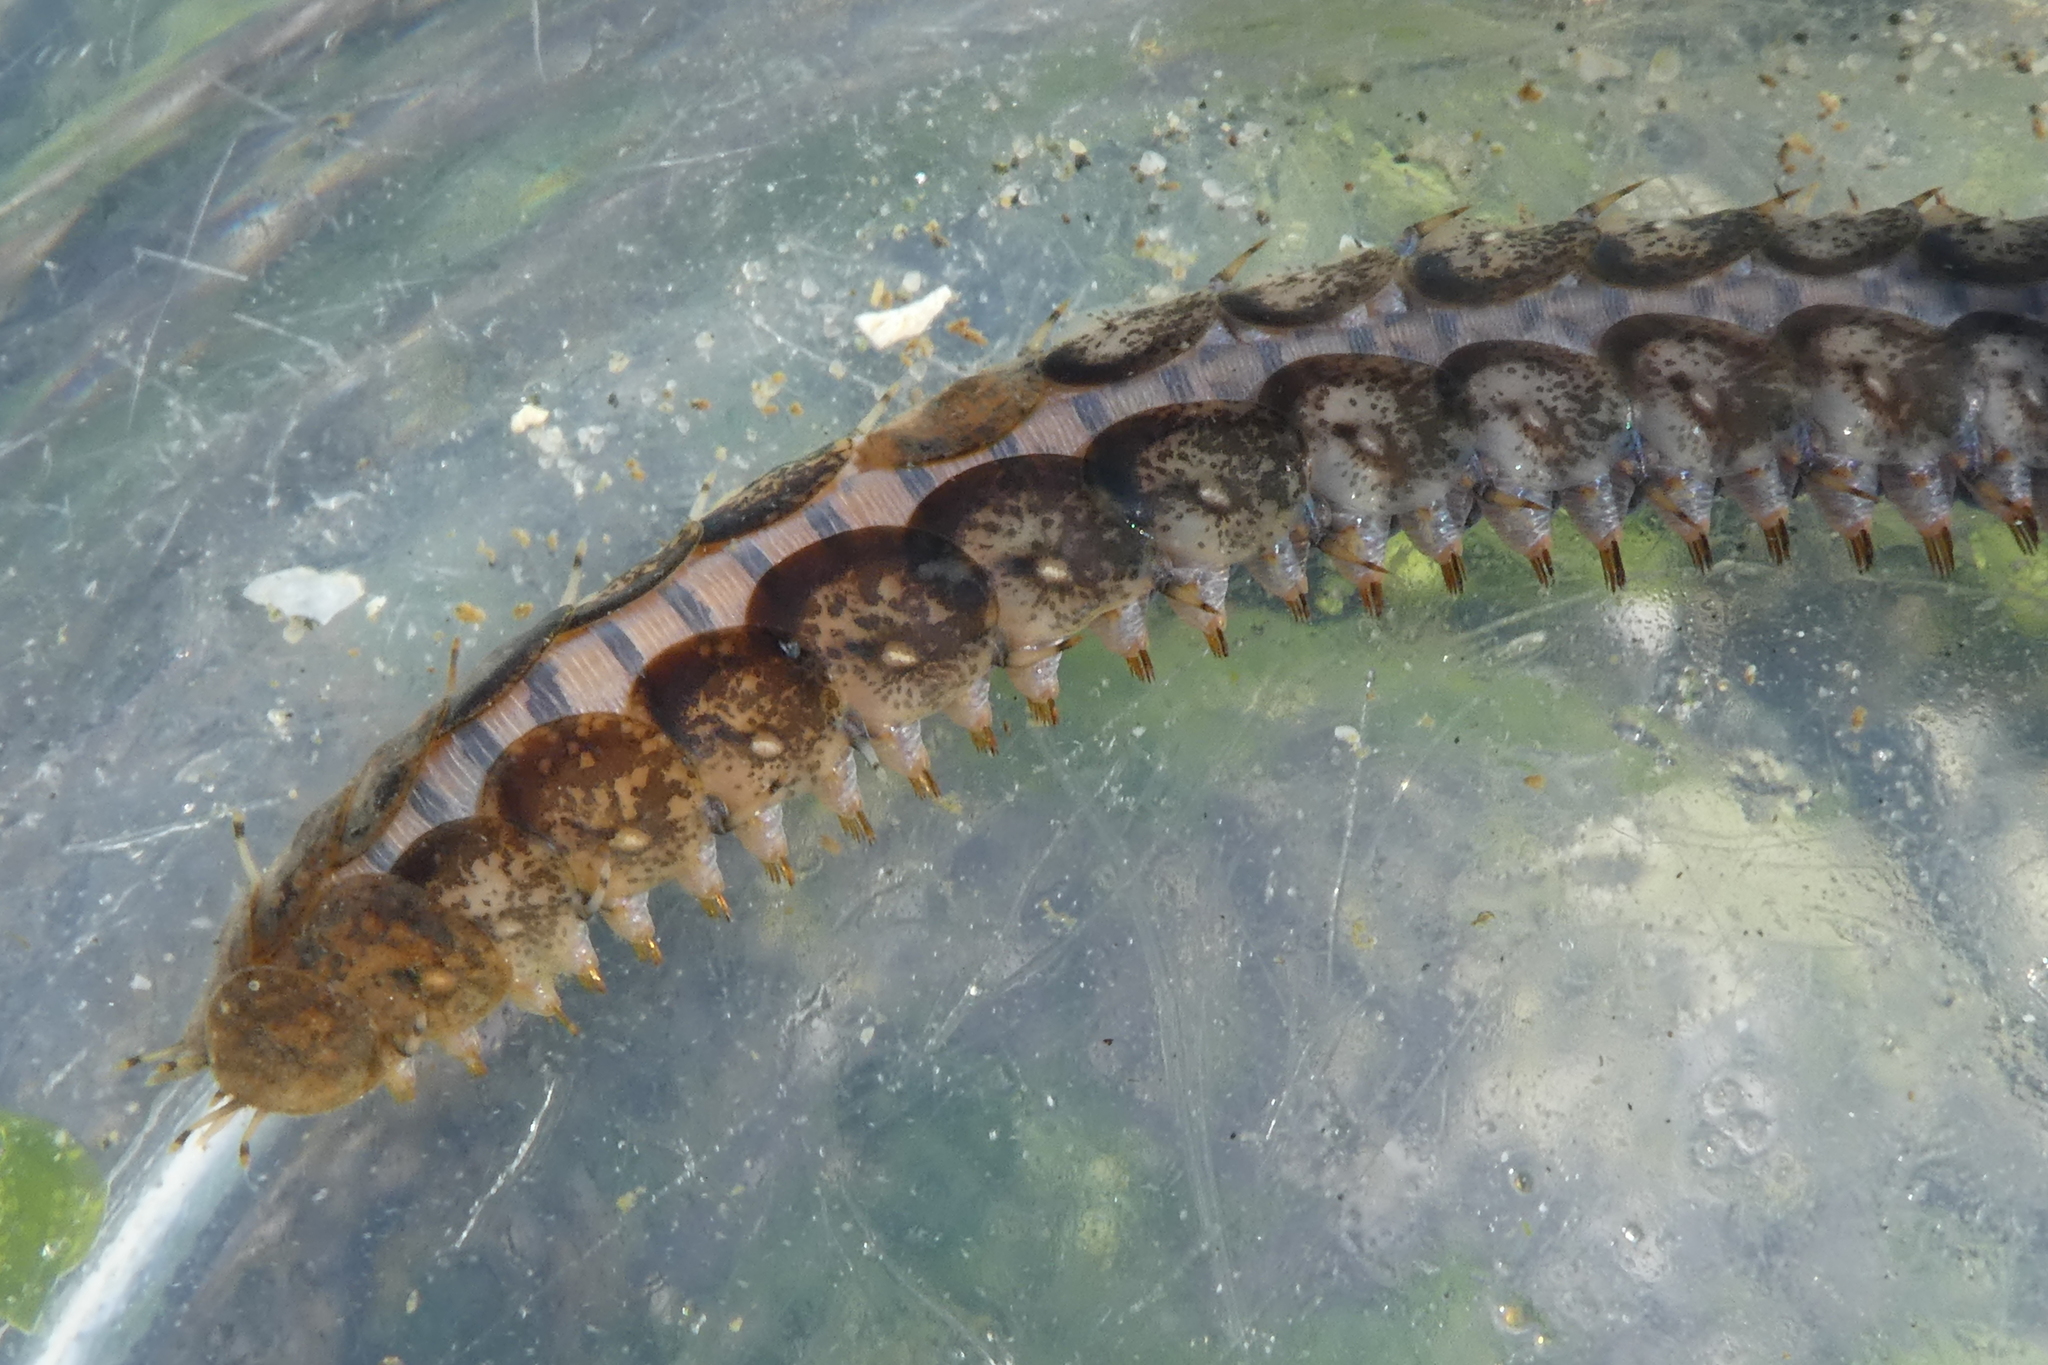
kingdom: Animalia
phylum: Annelida
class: Polychaeta
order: Phyllodocida
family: Polynoidae
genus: Halosydna
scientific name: Halosydna brevisetosa
